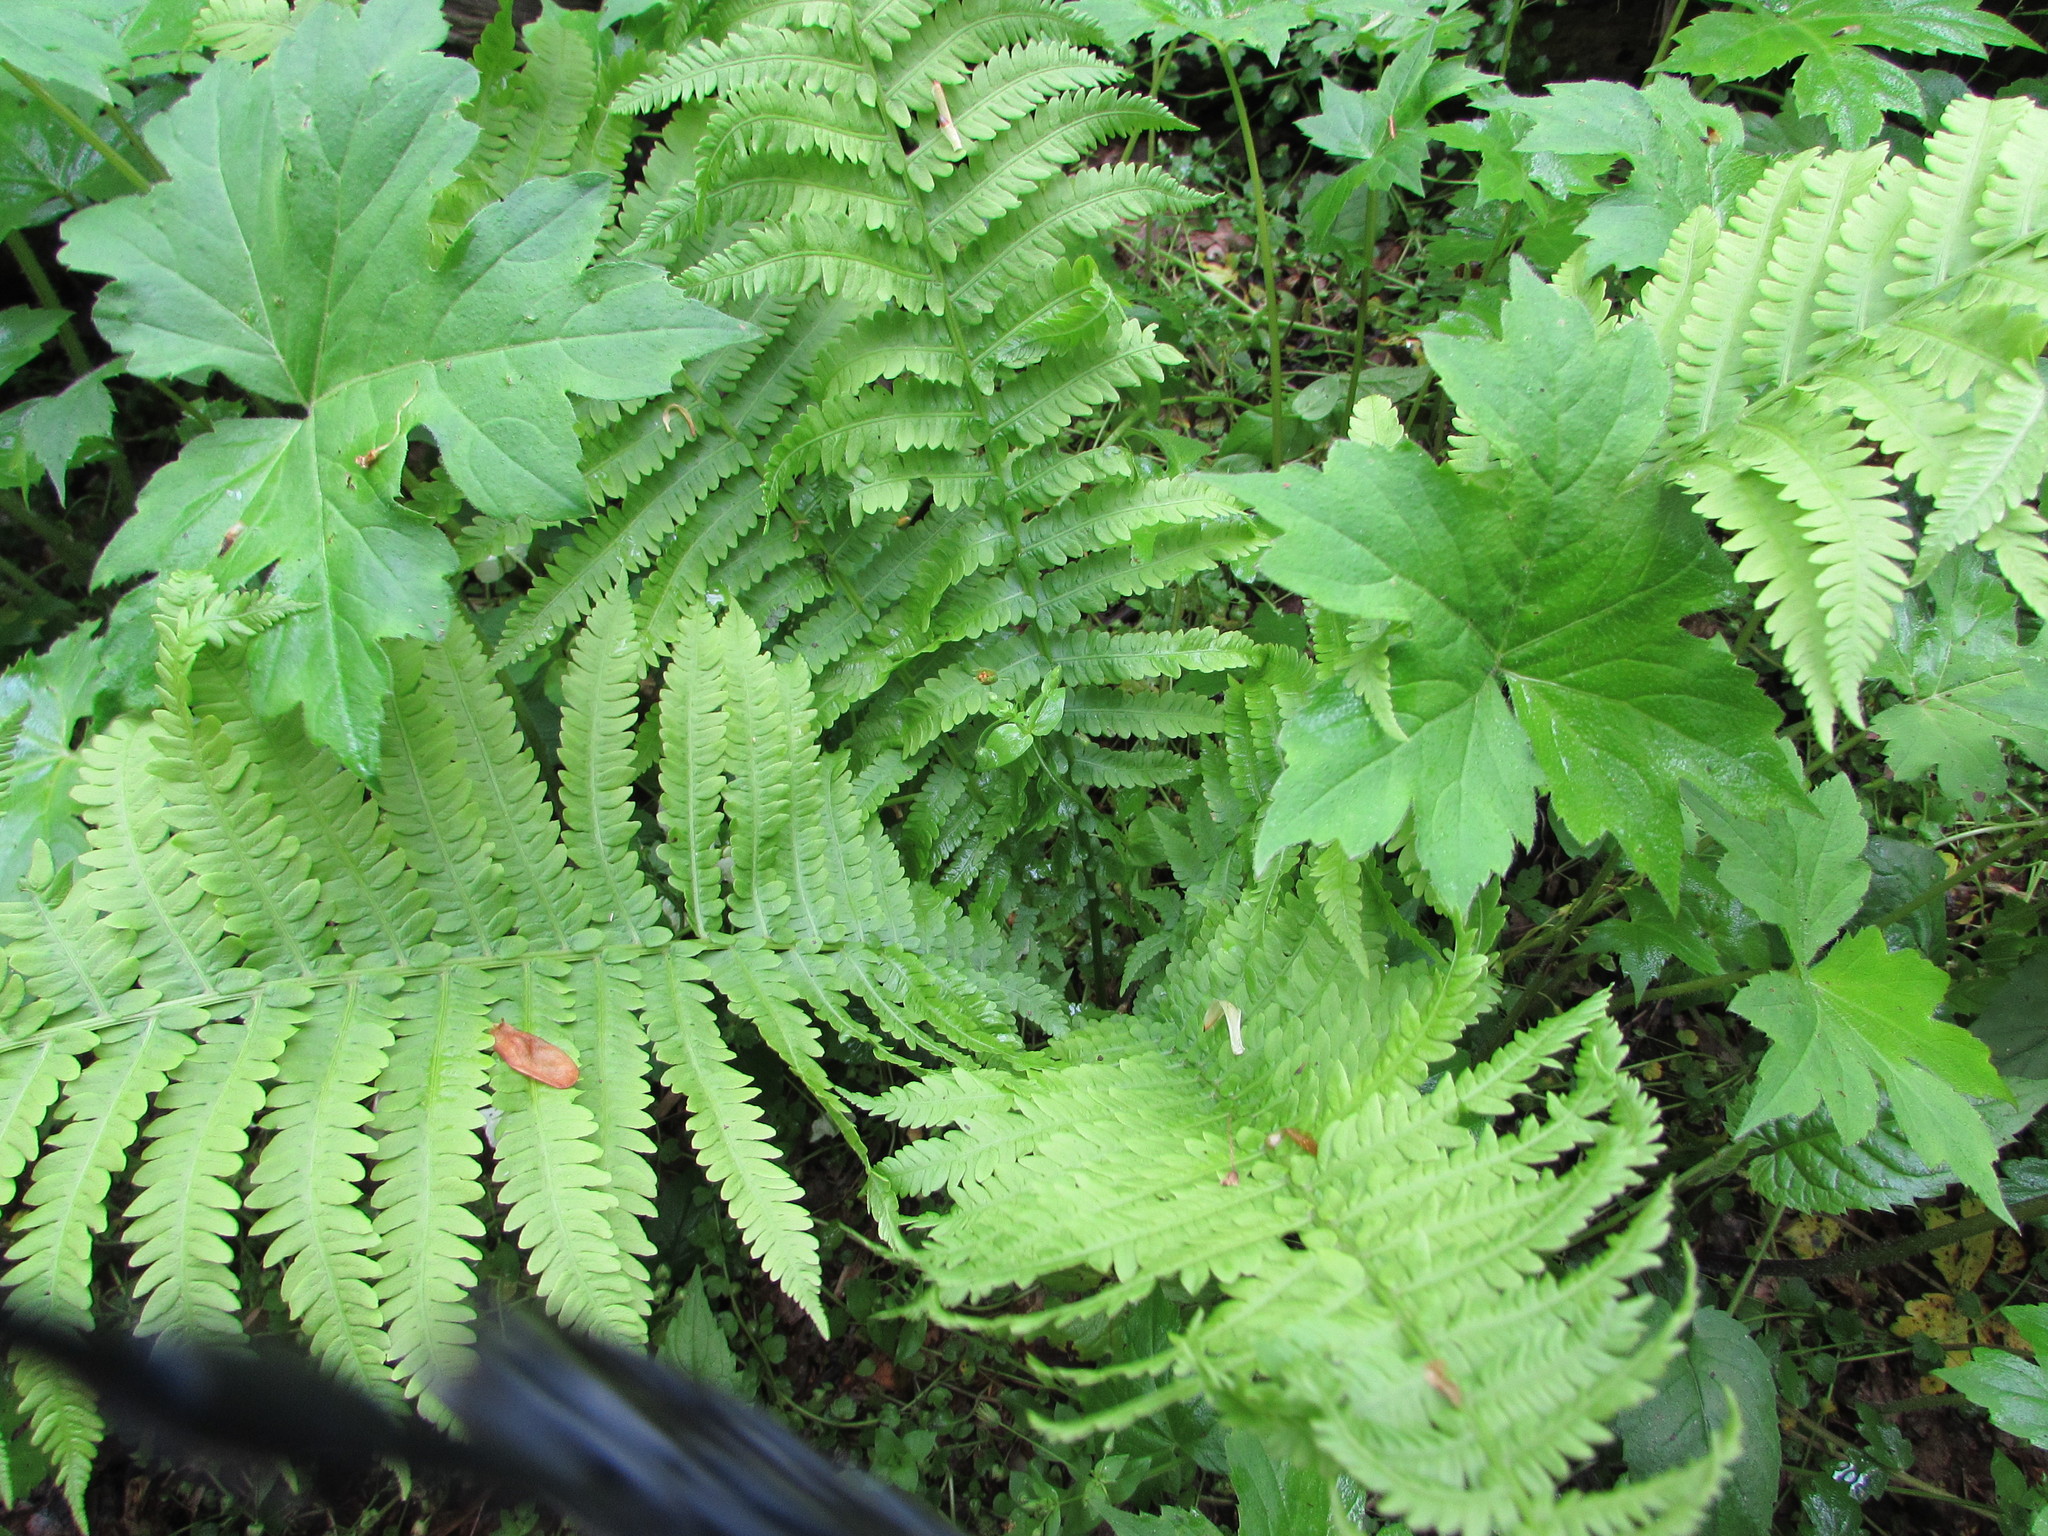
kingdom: Plantae
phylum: Tracheophyta
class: Polypodiopsida
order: Polypodiales
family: Athyriaceae
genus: Deparia
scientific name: Deparia acrostichoides
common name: Silver false spleenwort
